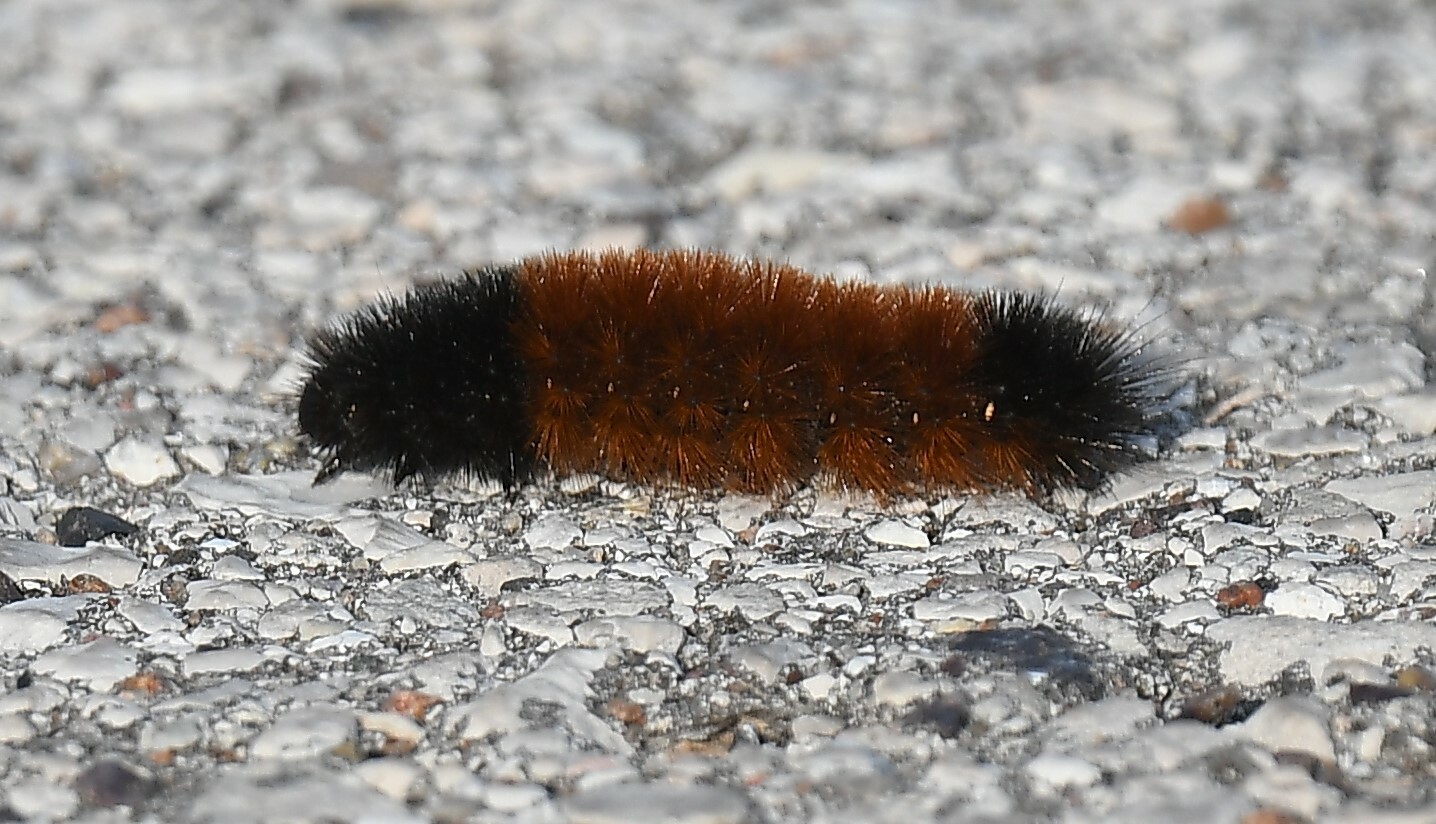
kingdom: Animalia
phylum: Arthropoda
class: Insecta
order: Lepidoptera
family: Erebidae
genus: Pyrrharctia
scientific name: Pyrrharctia isabella
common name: Isabella tiger moth
